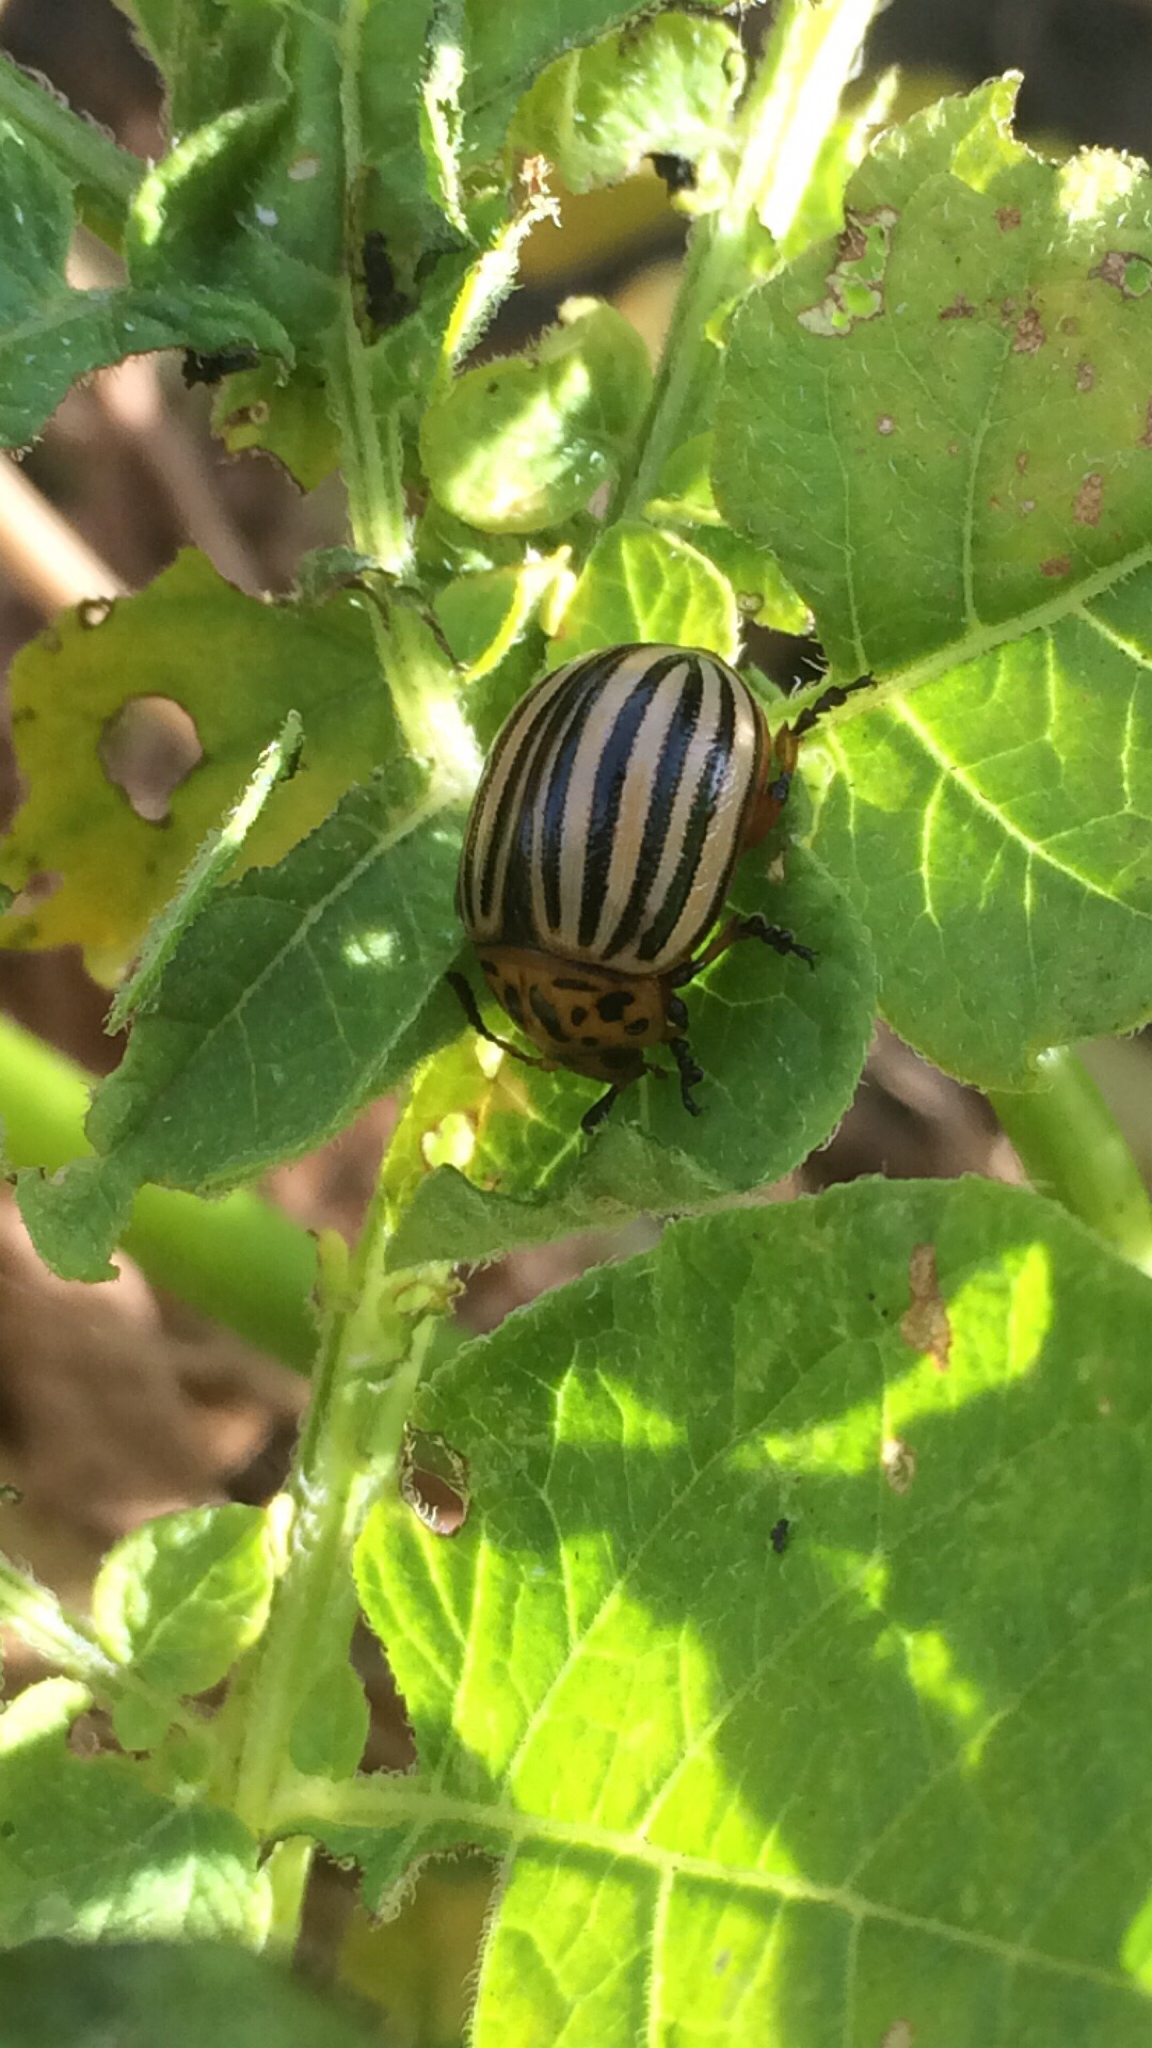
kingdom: Animalia
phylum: Arthropoda
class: Insecta
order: Coleoptera
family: Chrysomelidae
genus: Leptinotarsa
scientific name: Leptinotarsa decemlineata
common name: Colorado potato beetle
